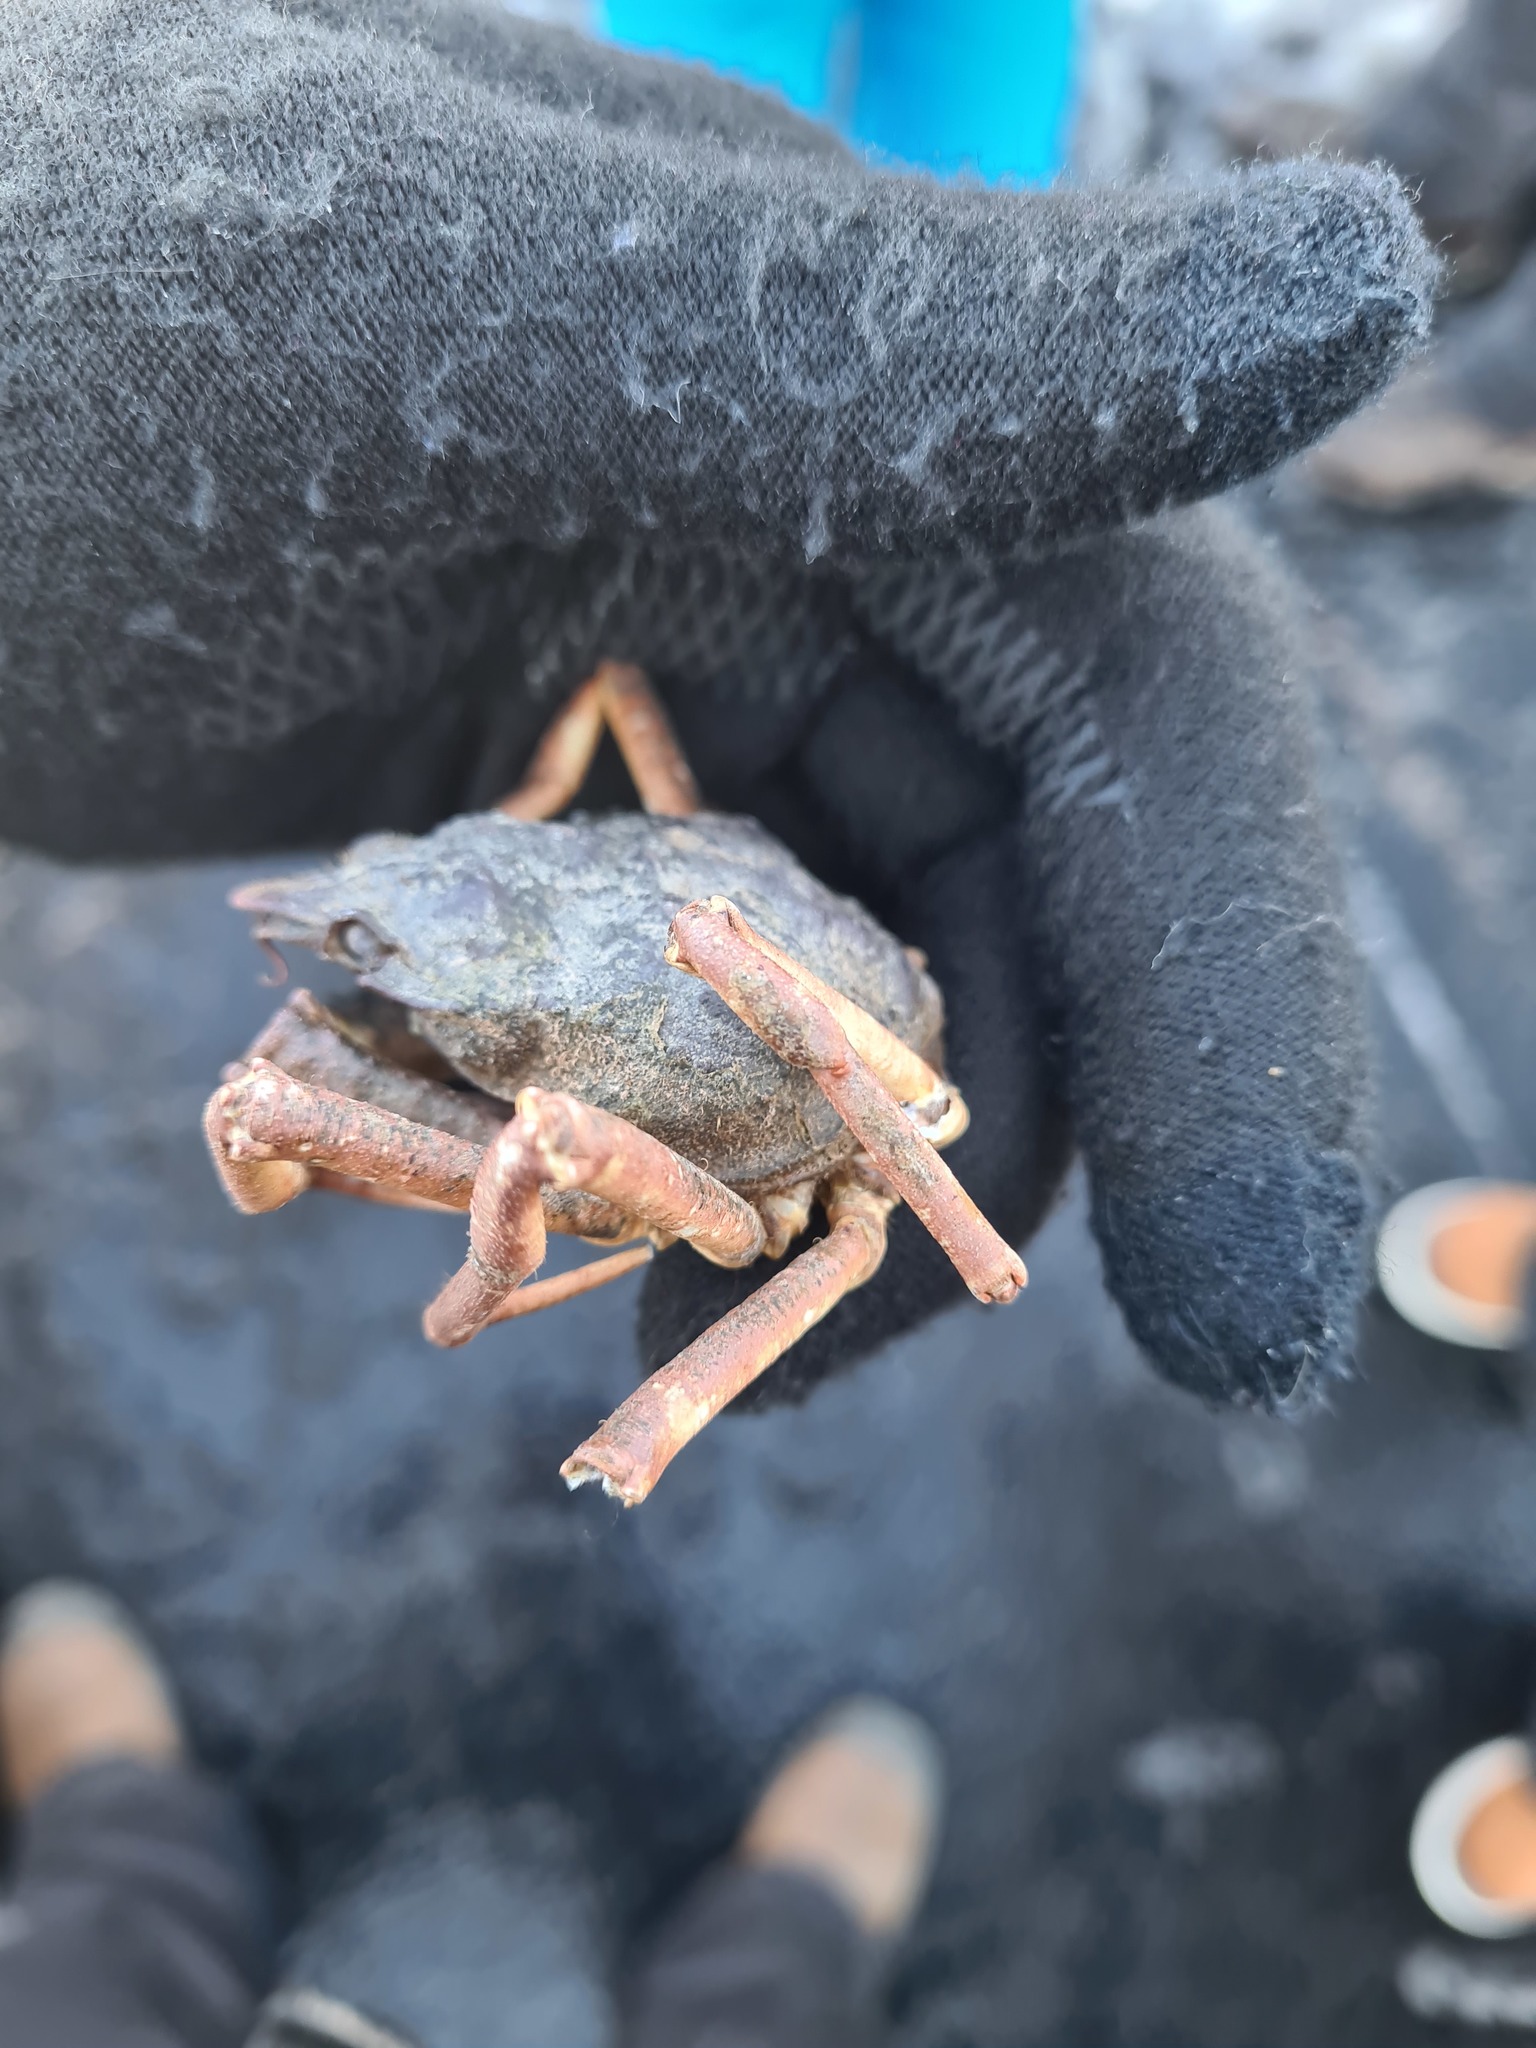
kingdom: Animalia
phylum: Arthropoda
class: Malacostraca
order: Decapoda
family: Oregoniidae
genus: Hyas
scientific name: Hyas araneus
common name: Great spider crab
